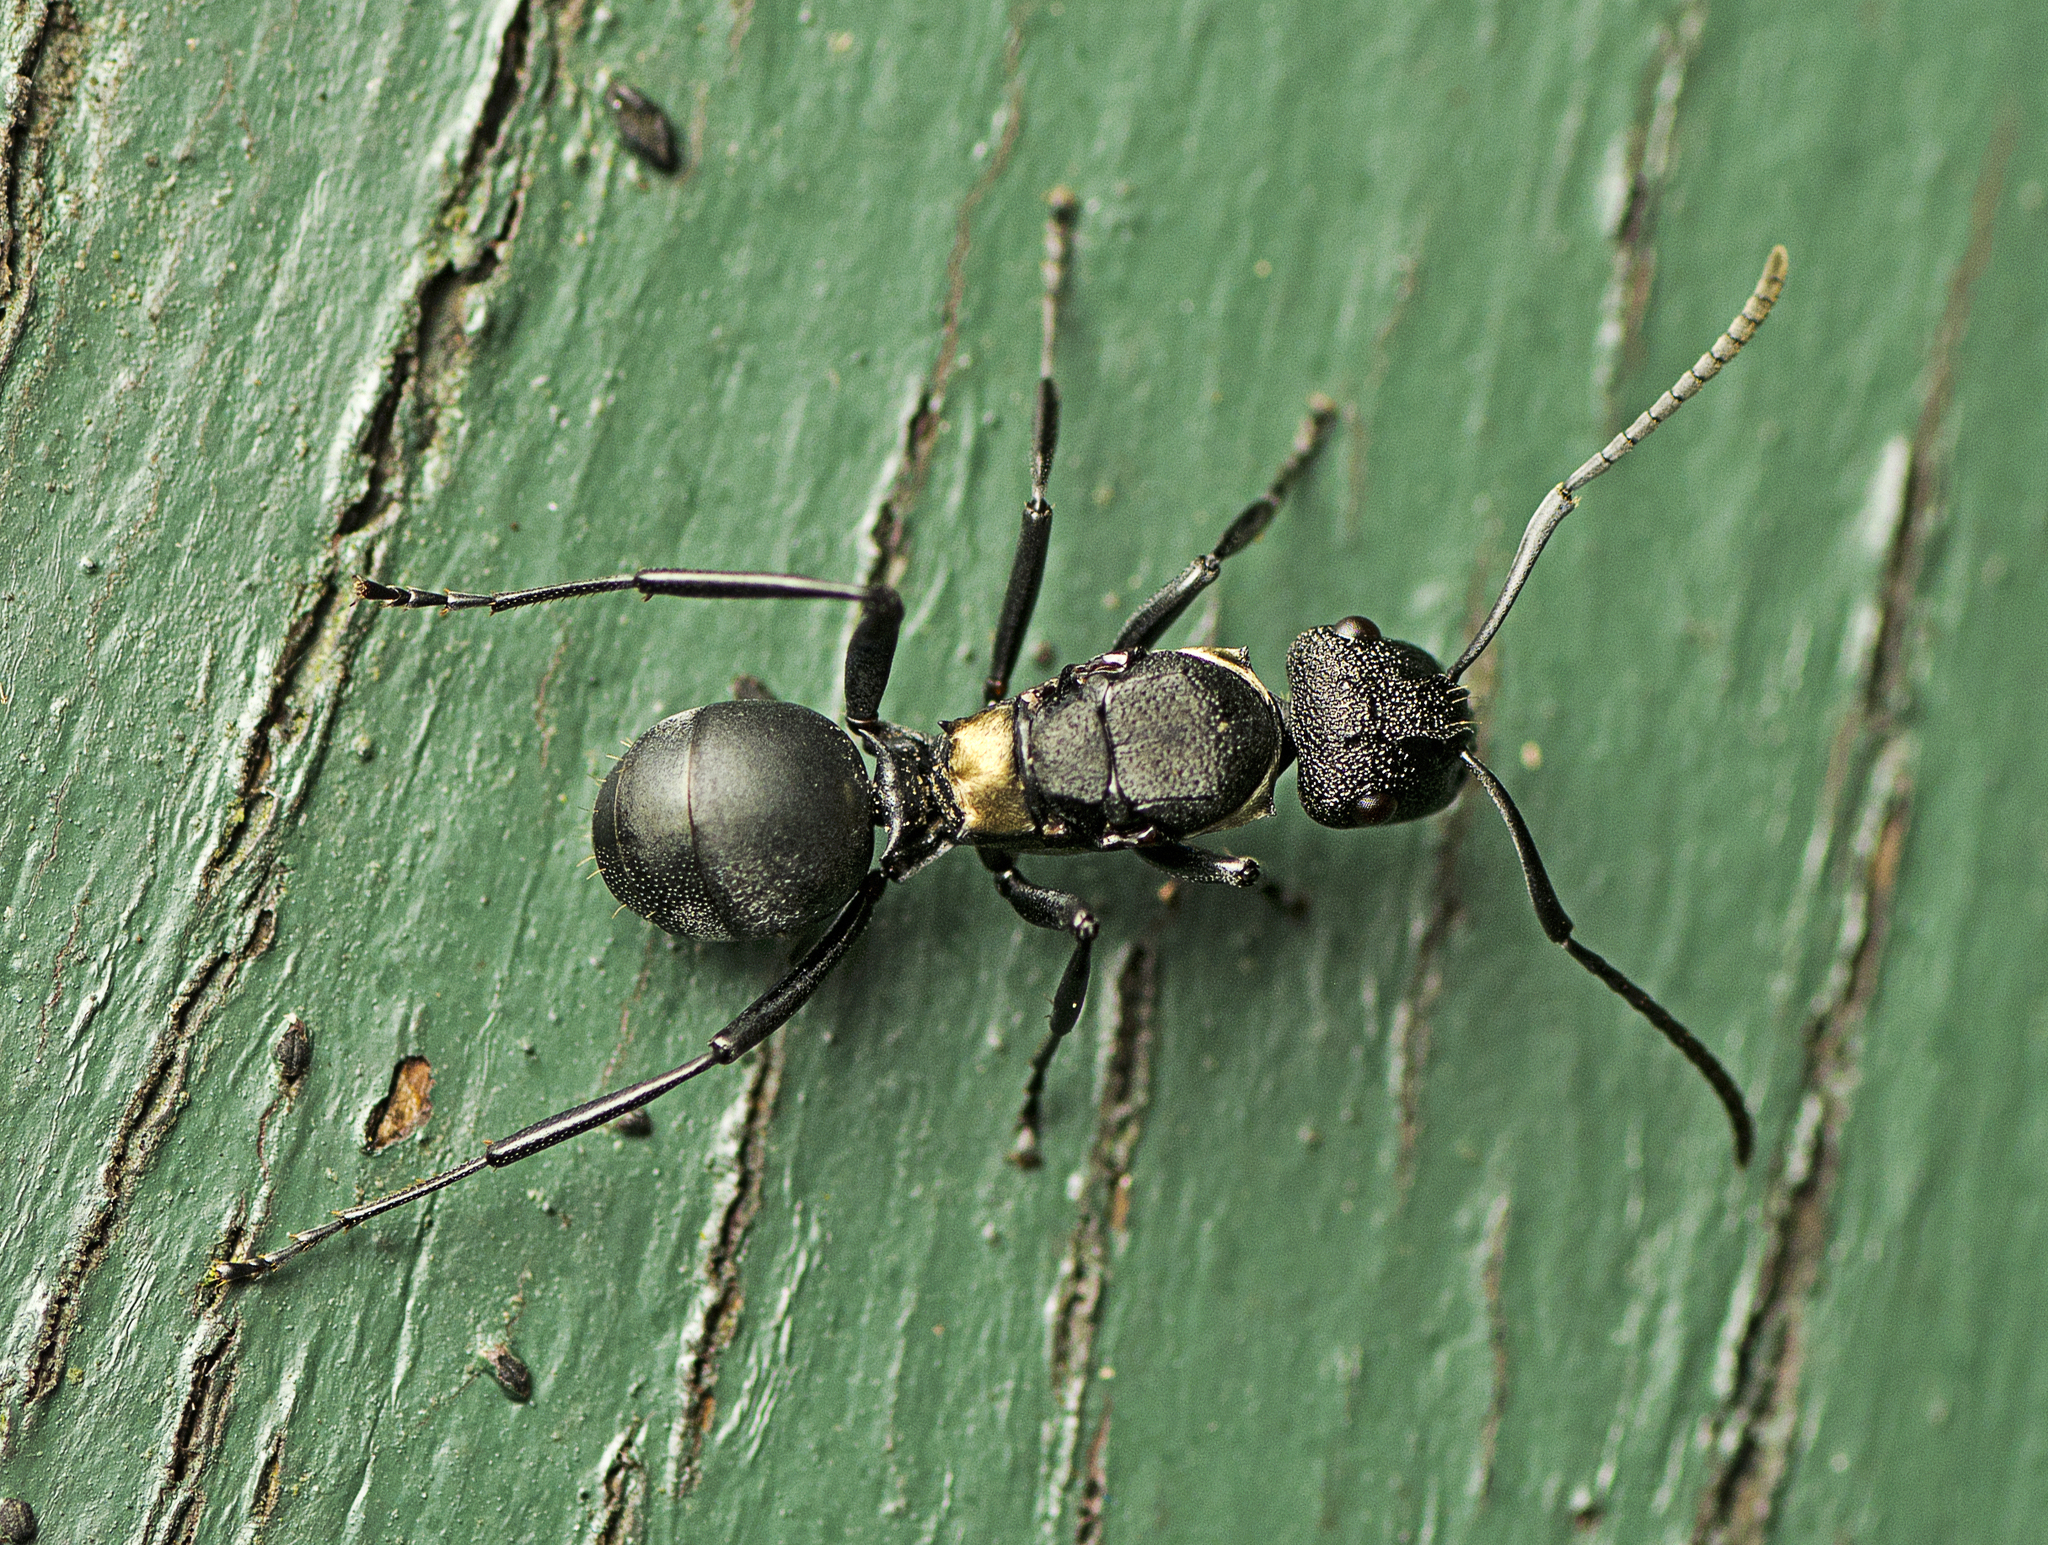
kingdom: Animalia
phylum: Arthropoda
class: Insecta
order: Hymenoptera
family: Formicidae
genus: Polyrhachis
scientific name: Polyrhachis machaon
